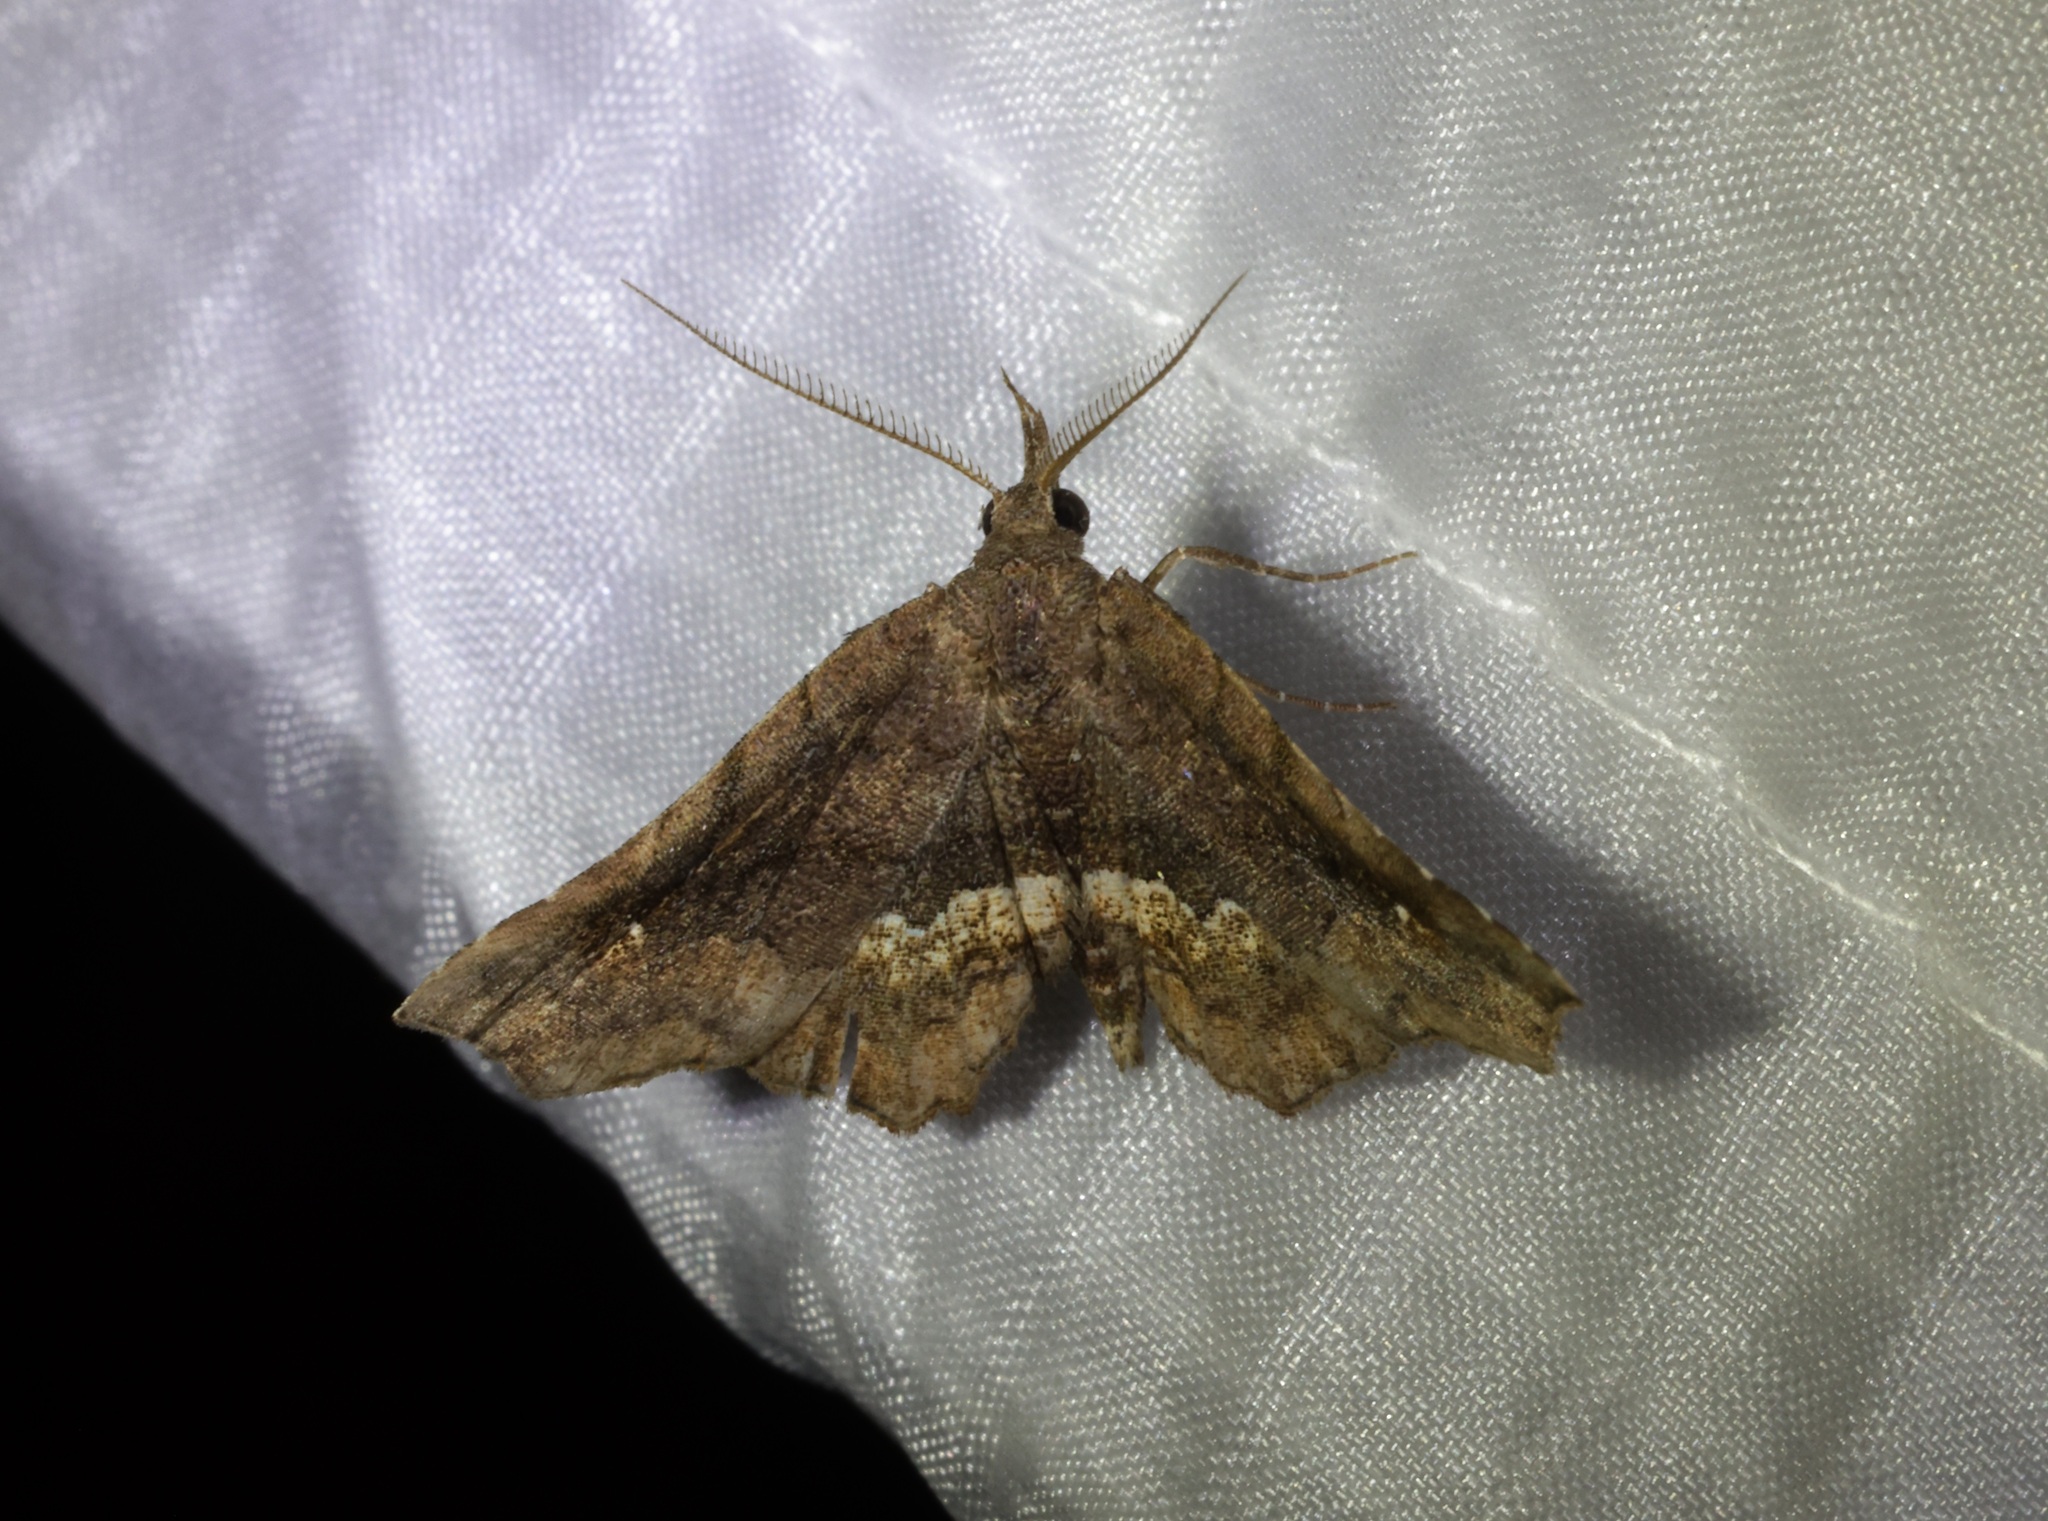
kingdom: Animalia
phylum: Arthropoda
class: Insecta
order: Lepidoptera
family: Erebidae
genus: Throana
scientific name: Throana pectinifer
